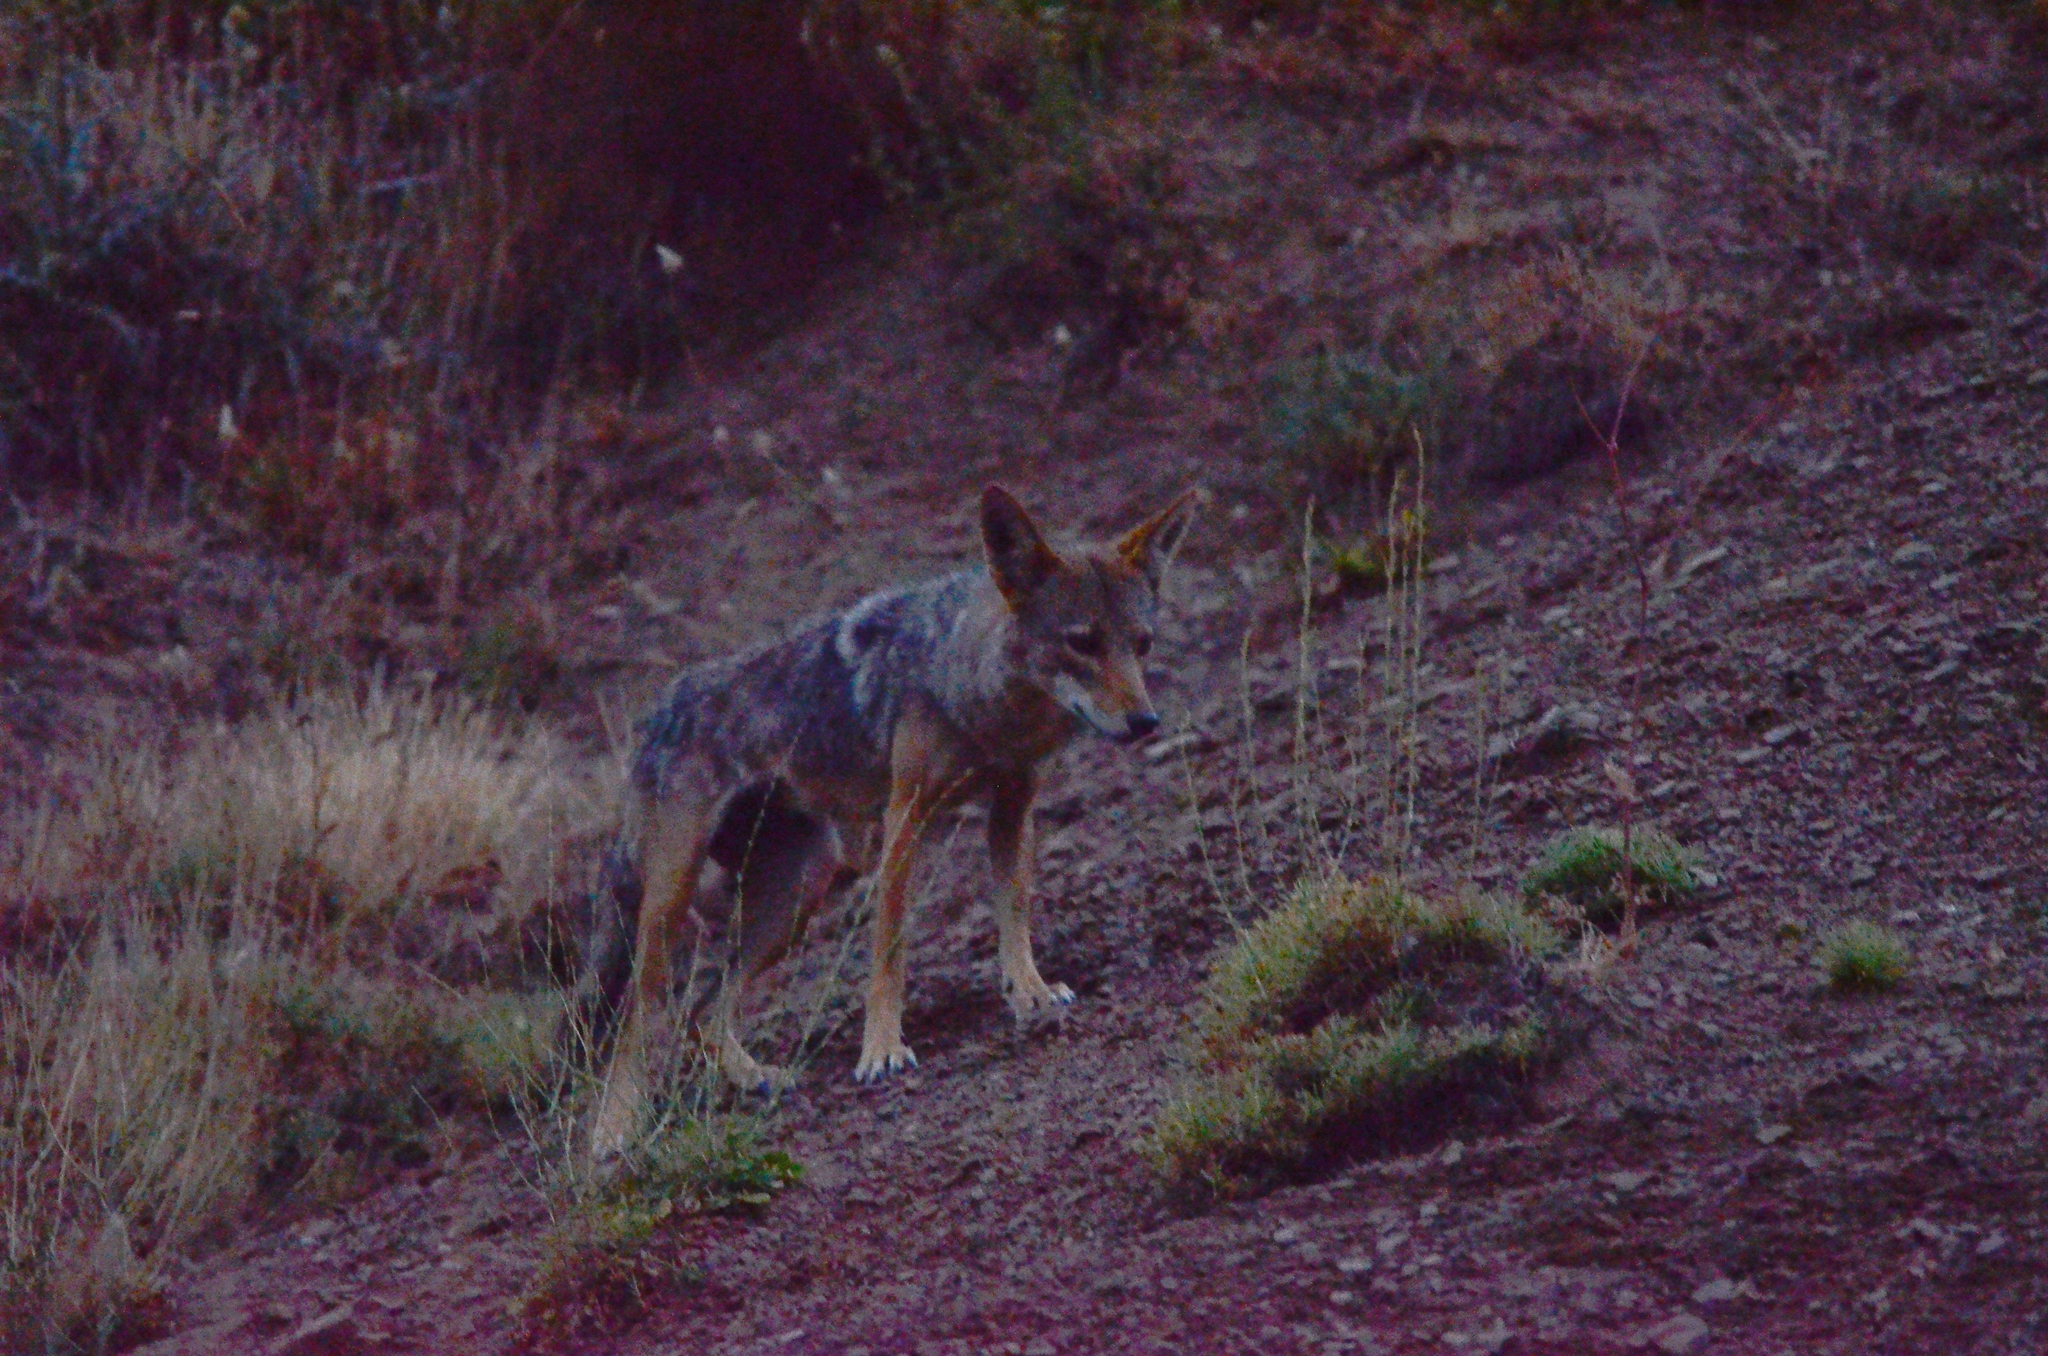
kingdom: Animalia
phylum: Chordata
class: Mammalia
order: Carnivora
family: Canidae
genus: Canis
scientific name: Canis lupaster
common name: African golden wolf
